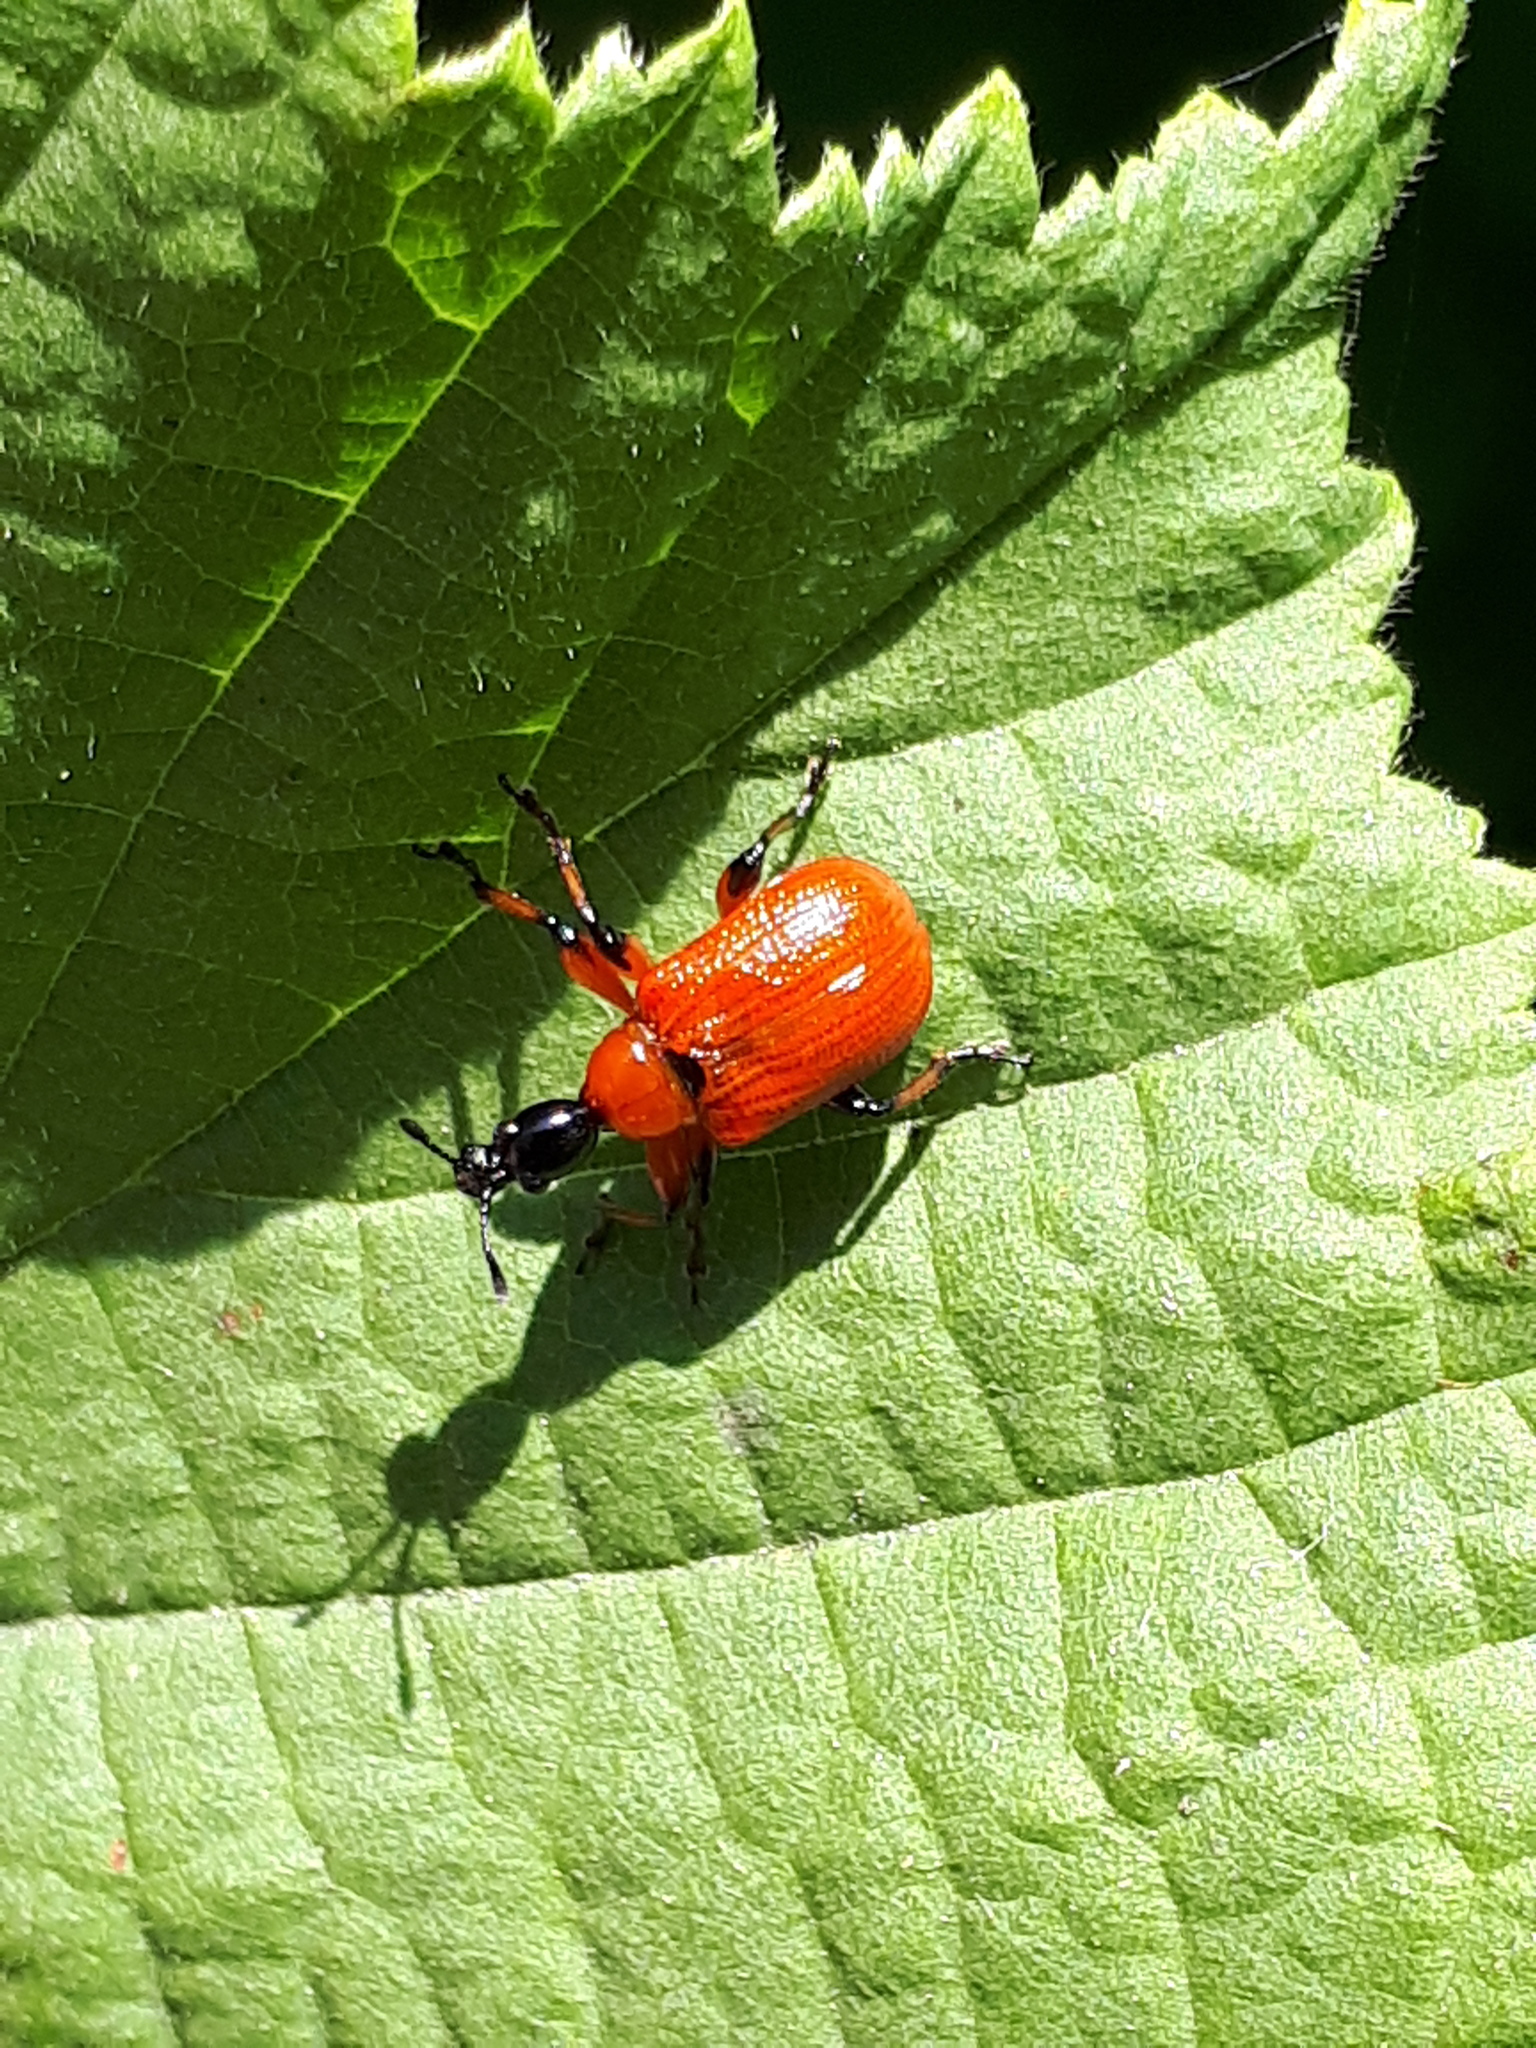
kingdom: Animalia
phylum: Arthropoda
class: Insecta
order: Coleoptera
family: Attelabidae
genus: Apoderus
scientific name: Apoderus coryli
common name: Hazel leaf roller
